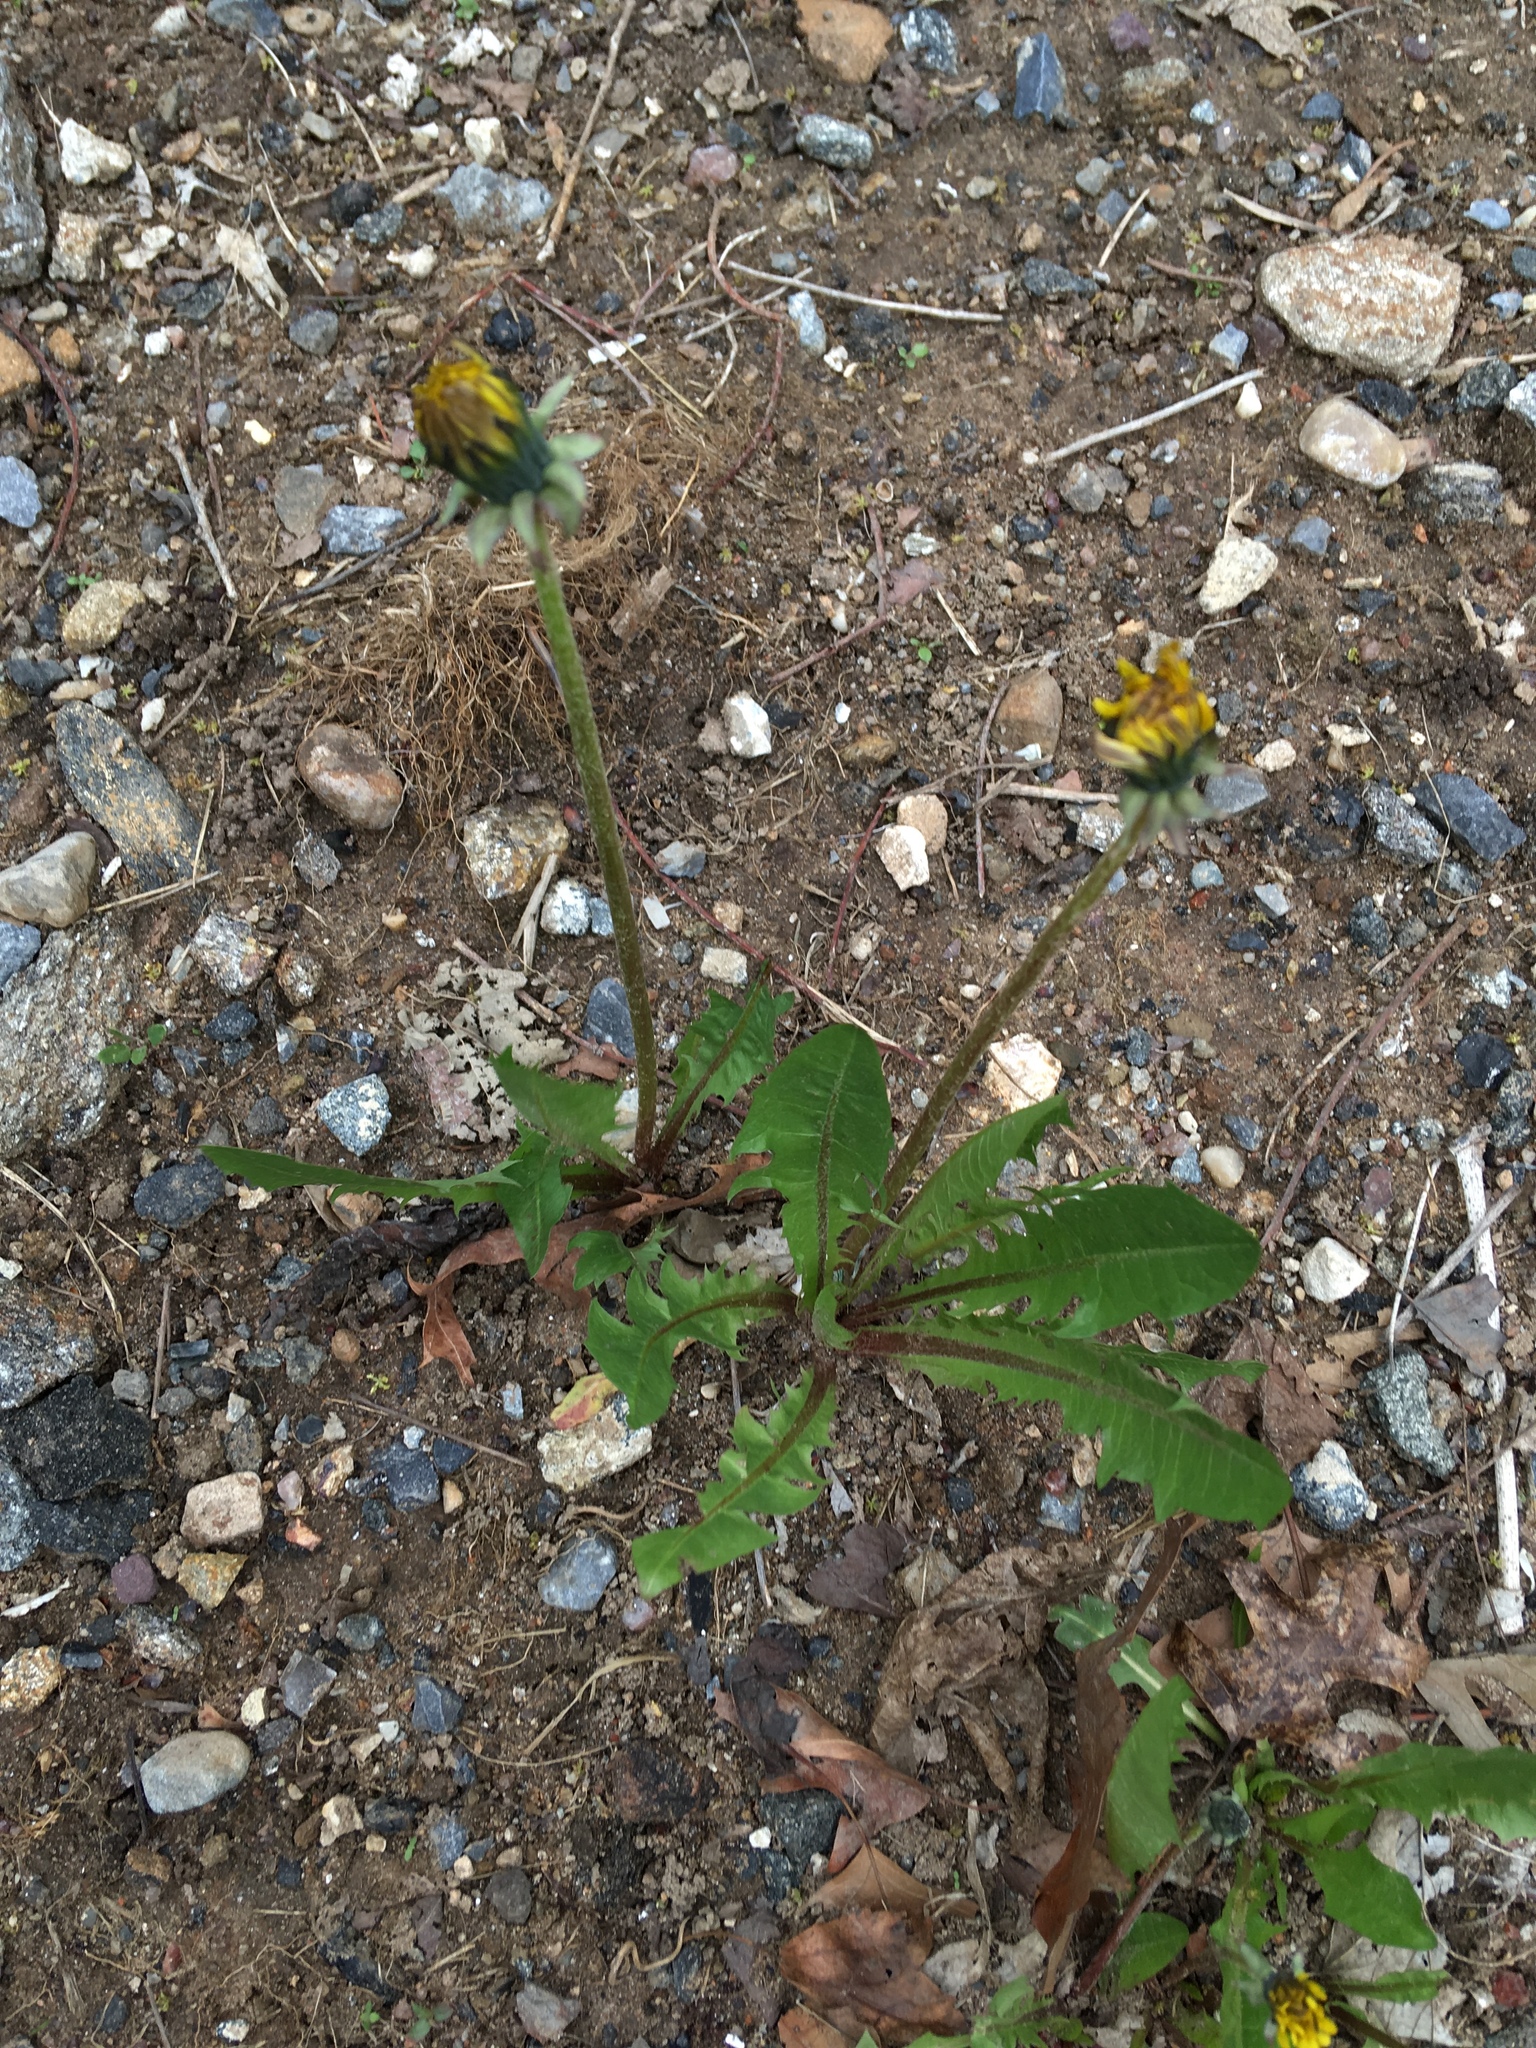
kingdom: Plantae
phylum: Tracheophyta
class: Magnoliopsida
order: Asterales
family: Asteraceae
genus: Taraxacum
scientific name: Taraxacum officinale
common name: Common dandelion
